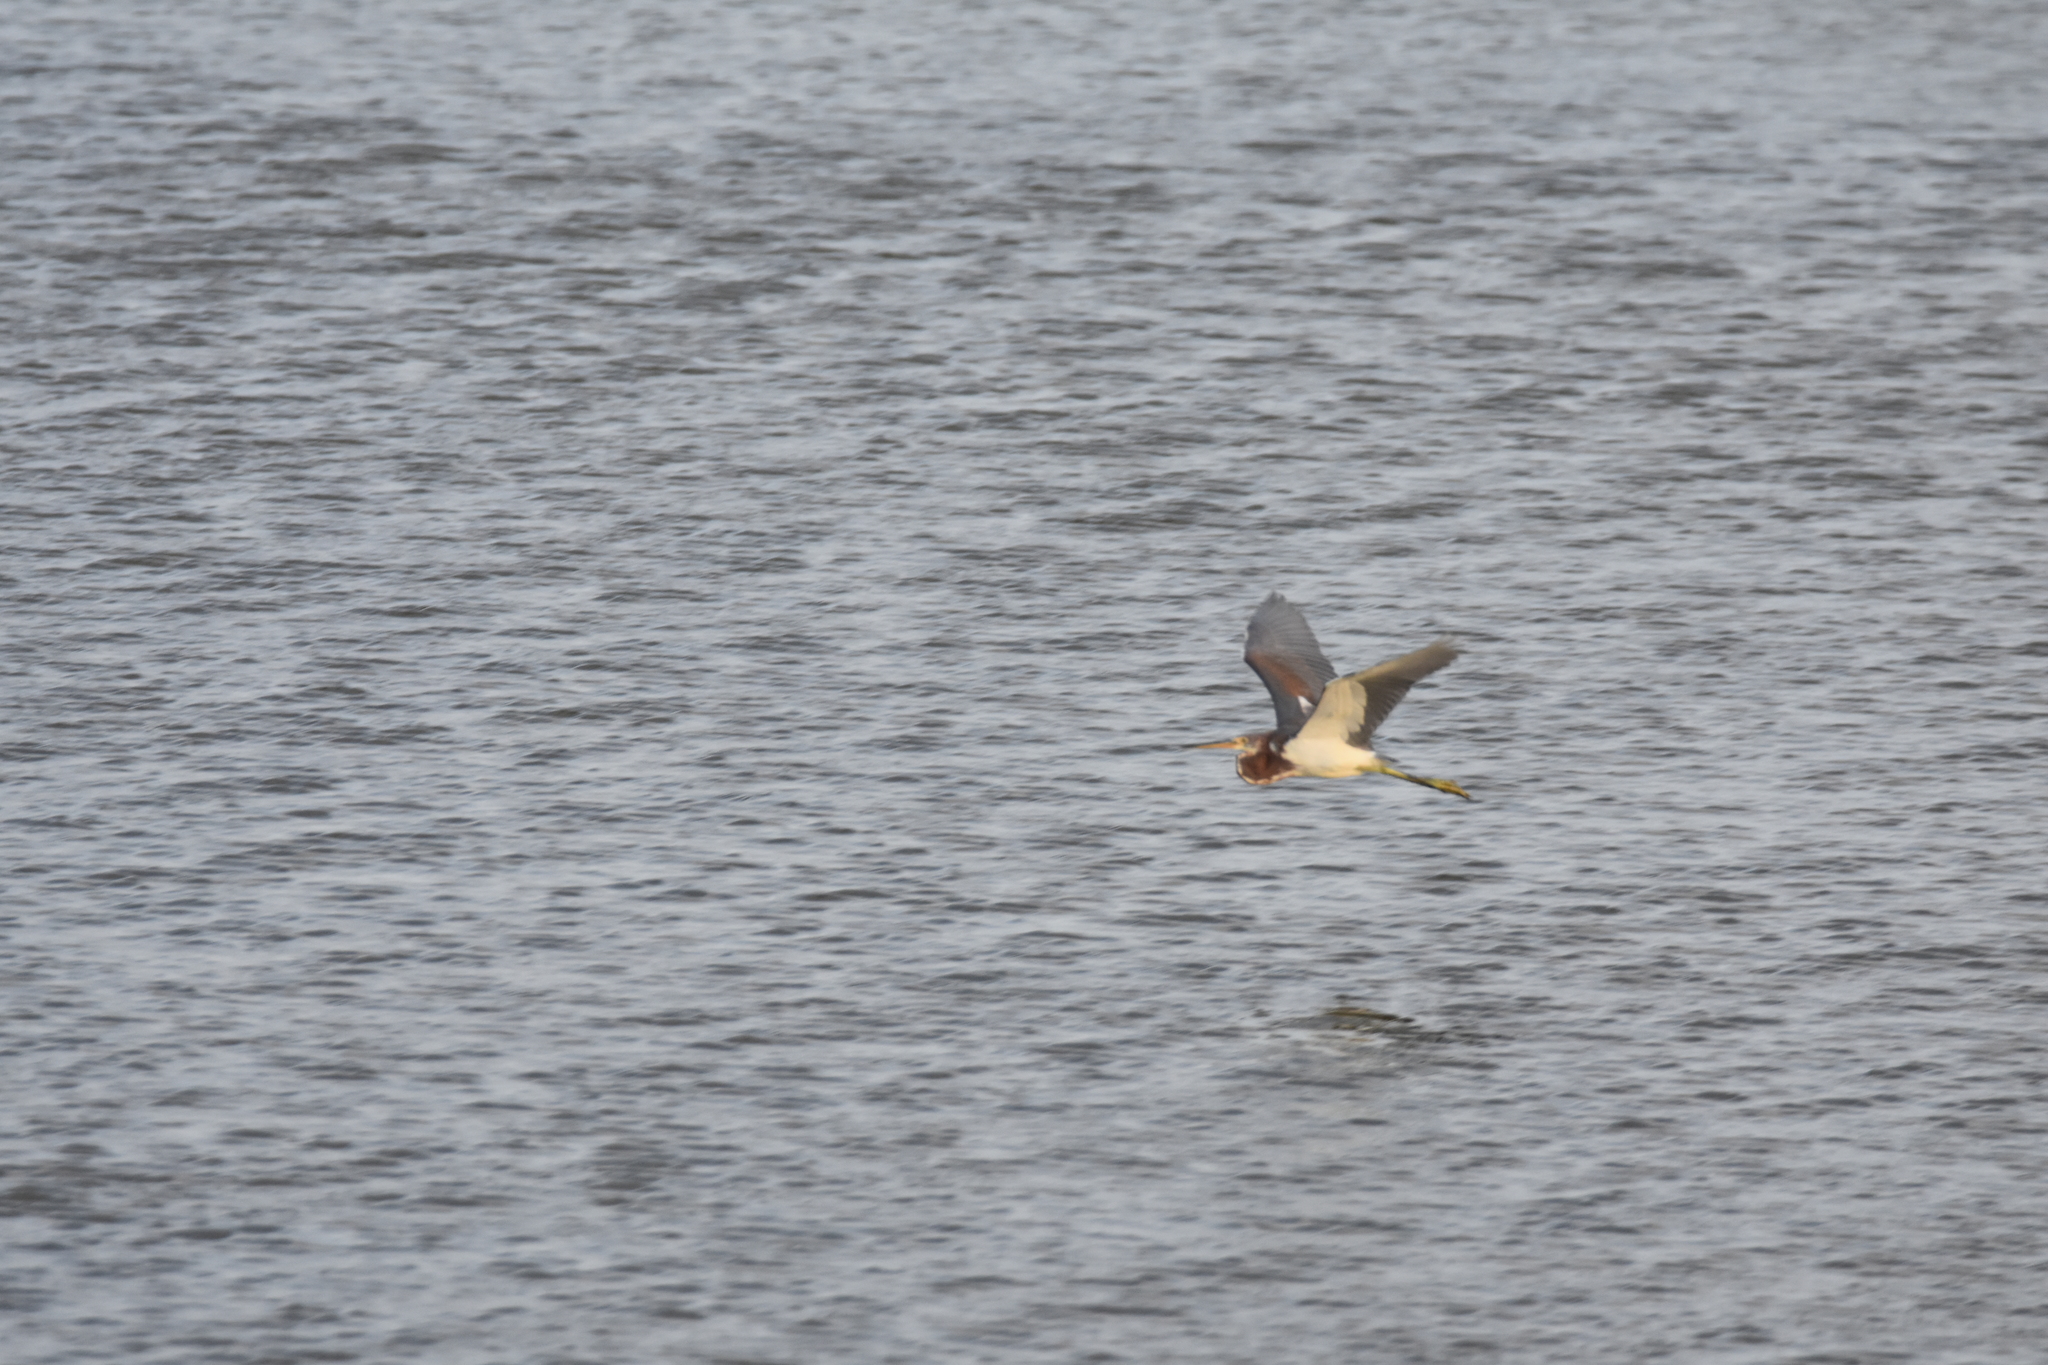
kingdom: Animalia
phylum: Chordata
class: Aves
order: Pelecaniformes
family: Ardeidae
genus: Egretta
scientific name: Egretta tricolor
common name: Tricolored heron
